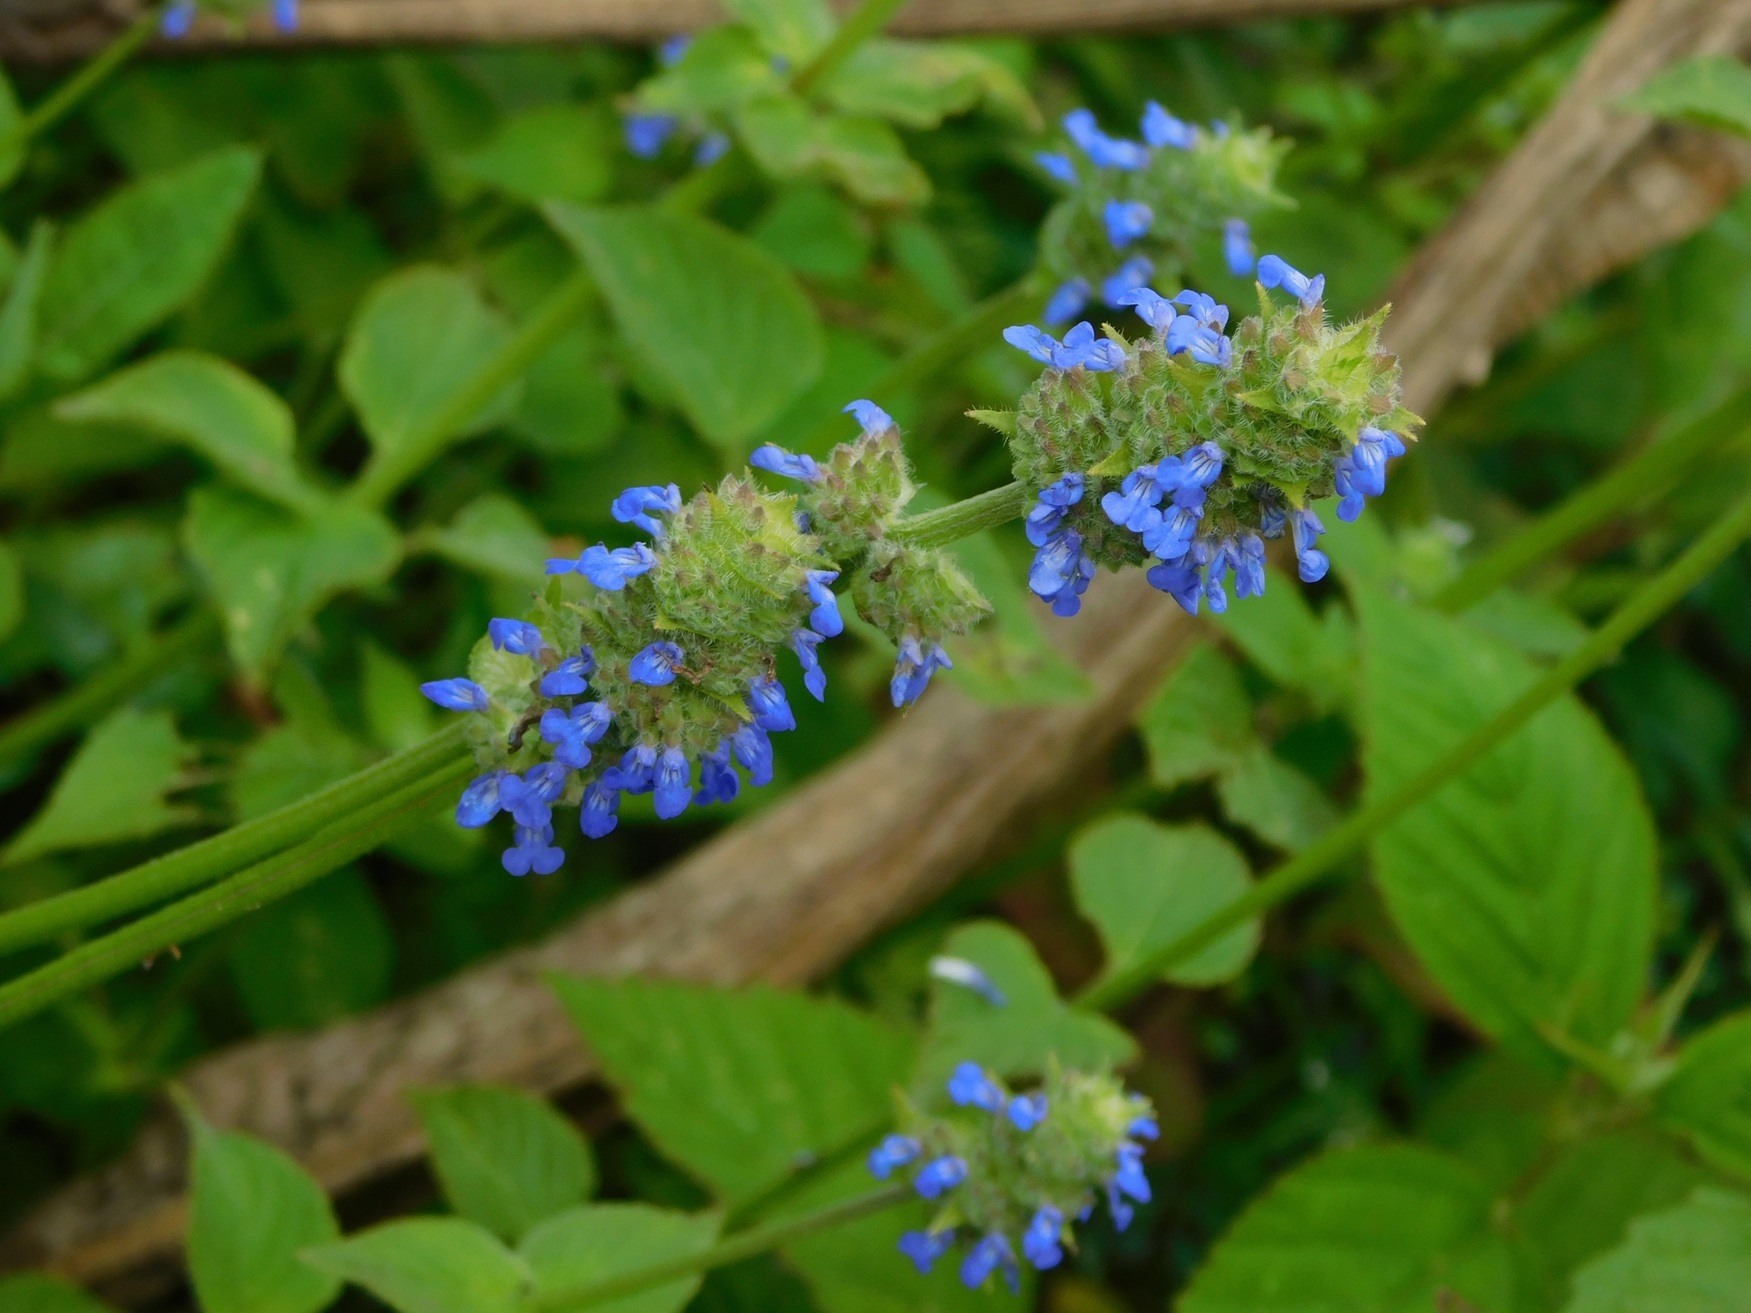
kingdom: Plantae
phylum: Tracheophyta
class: Magnoliopsida
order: Lamiales
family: Lamiaceae
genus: Salvia
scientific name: Salvia lasiocephala
